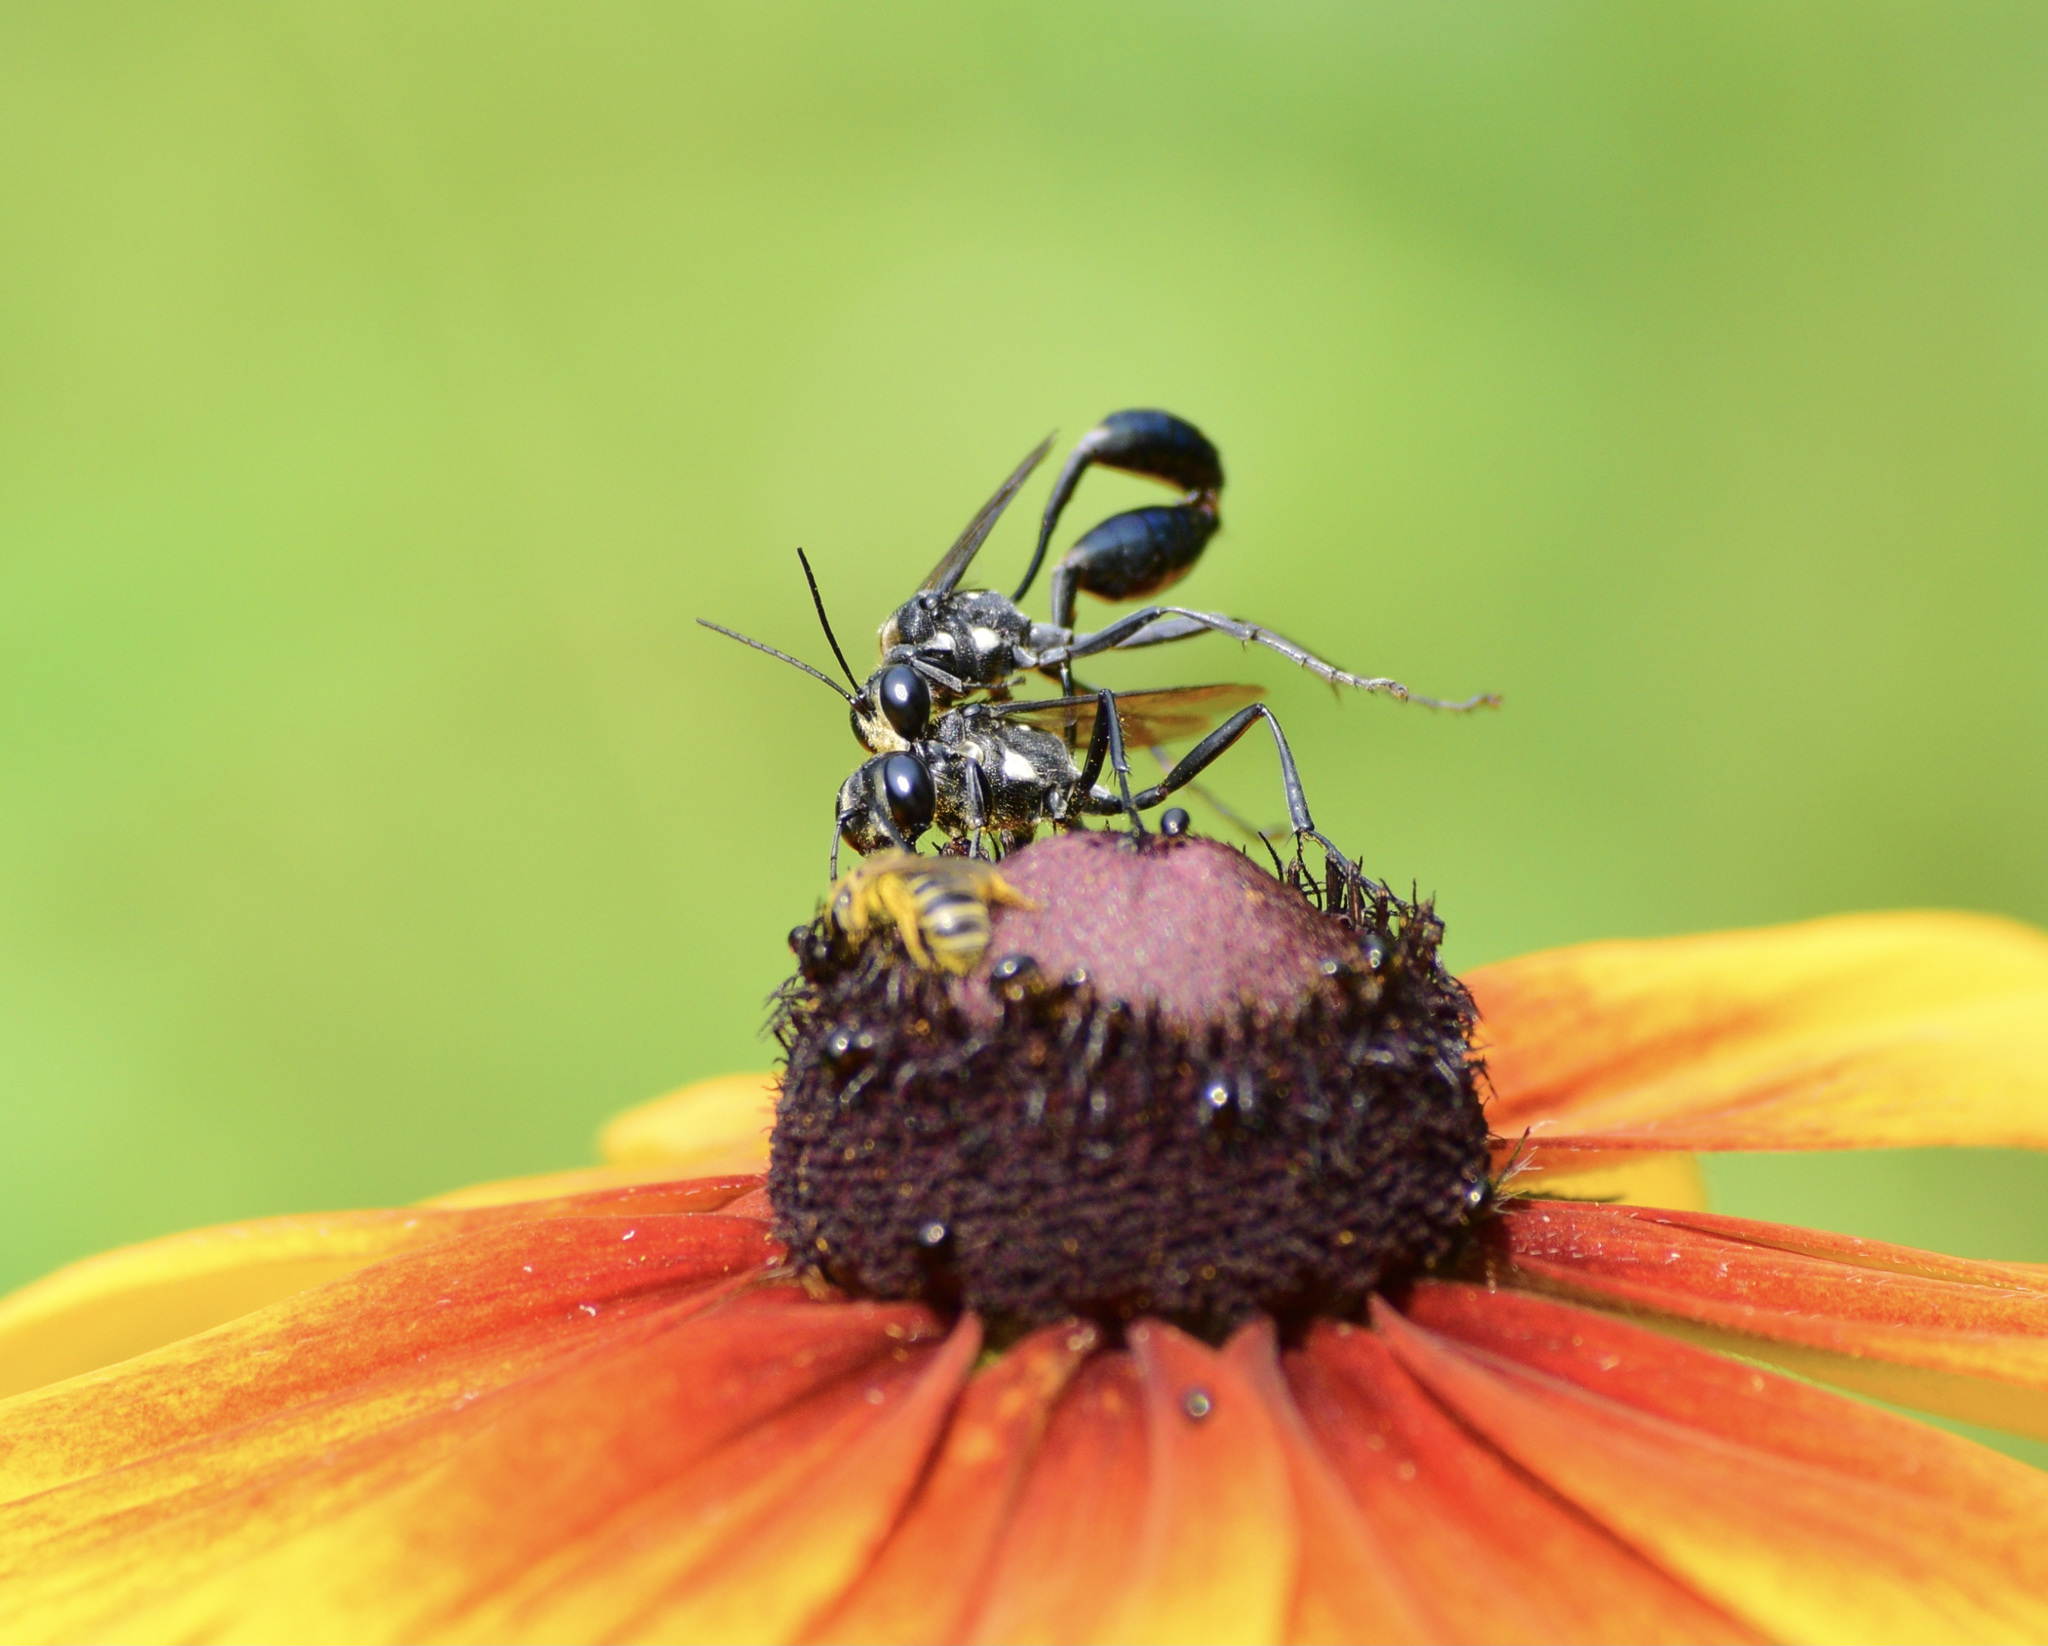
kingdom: Animalia
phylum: Arthropoda
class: Insecta
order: Hymenoptera
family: Sphecidae
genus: Eremnophila
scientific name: Eremnophila aureonotata
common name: Gold-marked thread-waisted wasp
